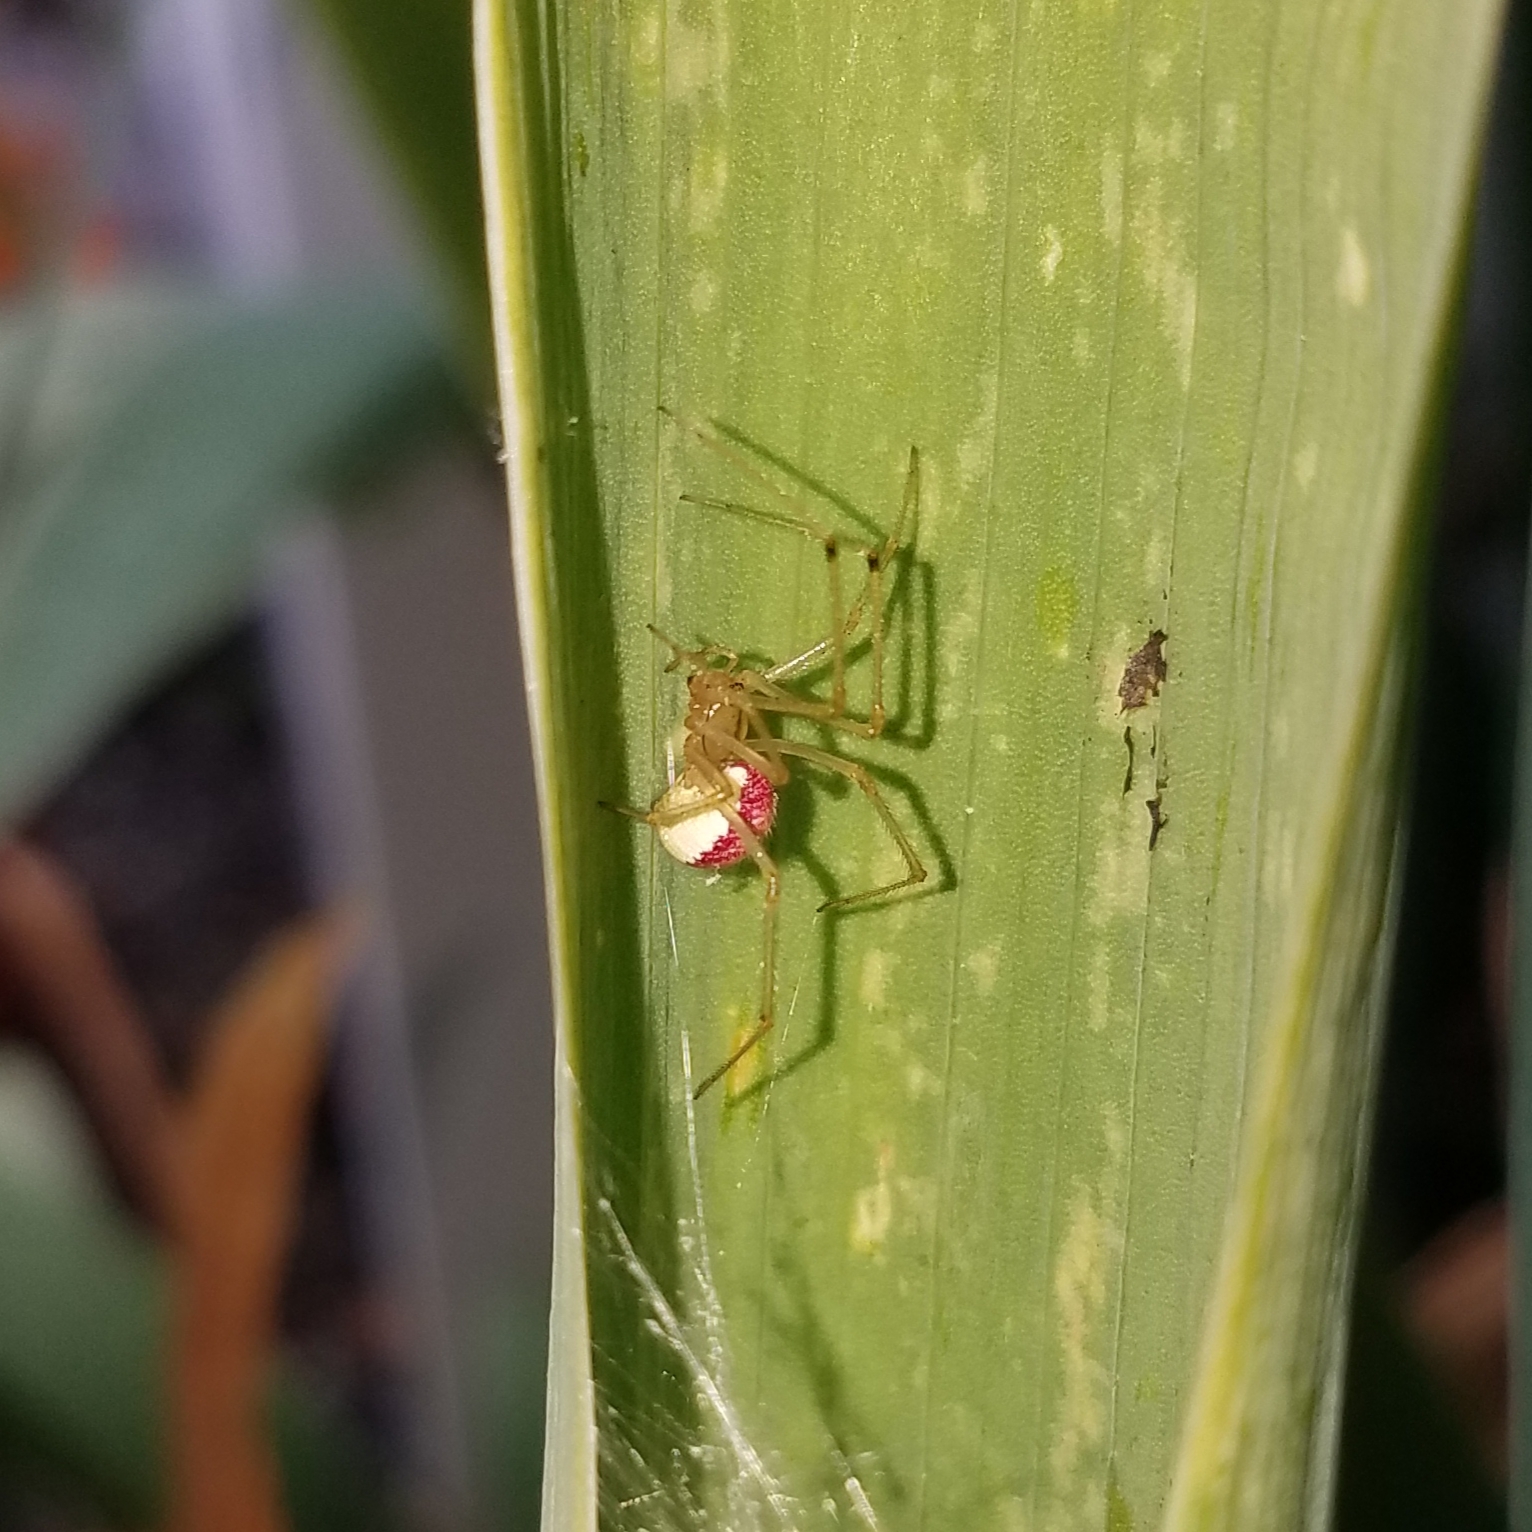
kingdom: Animalia
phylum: Arthropoda
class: Arachnida
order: Araneae
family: Theridiidae
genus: Enoplognatha
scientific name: Enoplognatha ovata
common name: Common candy-striped spider
